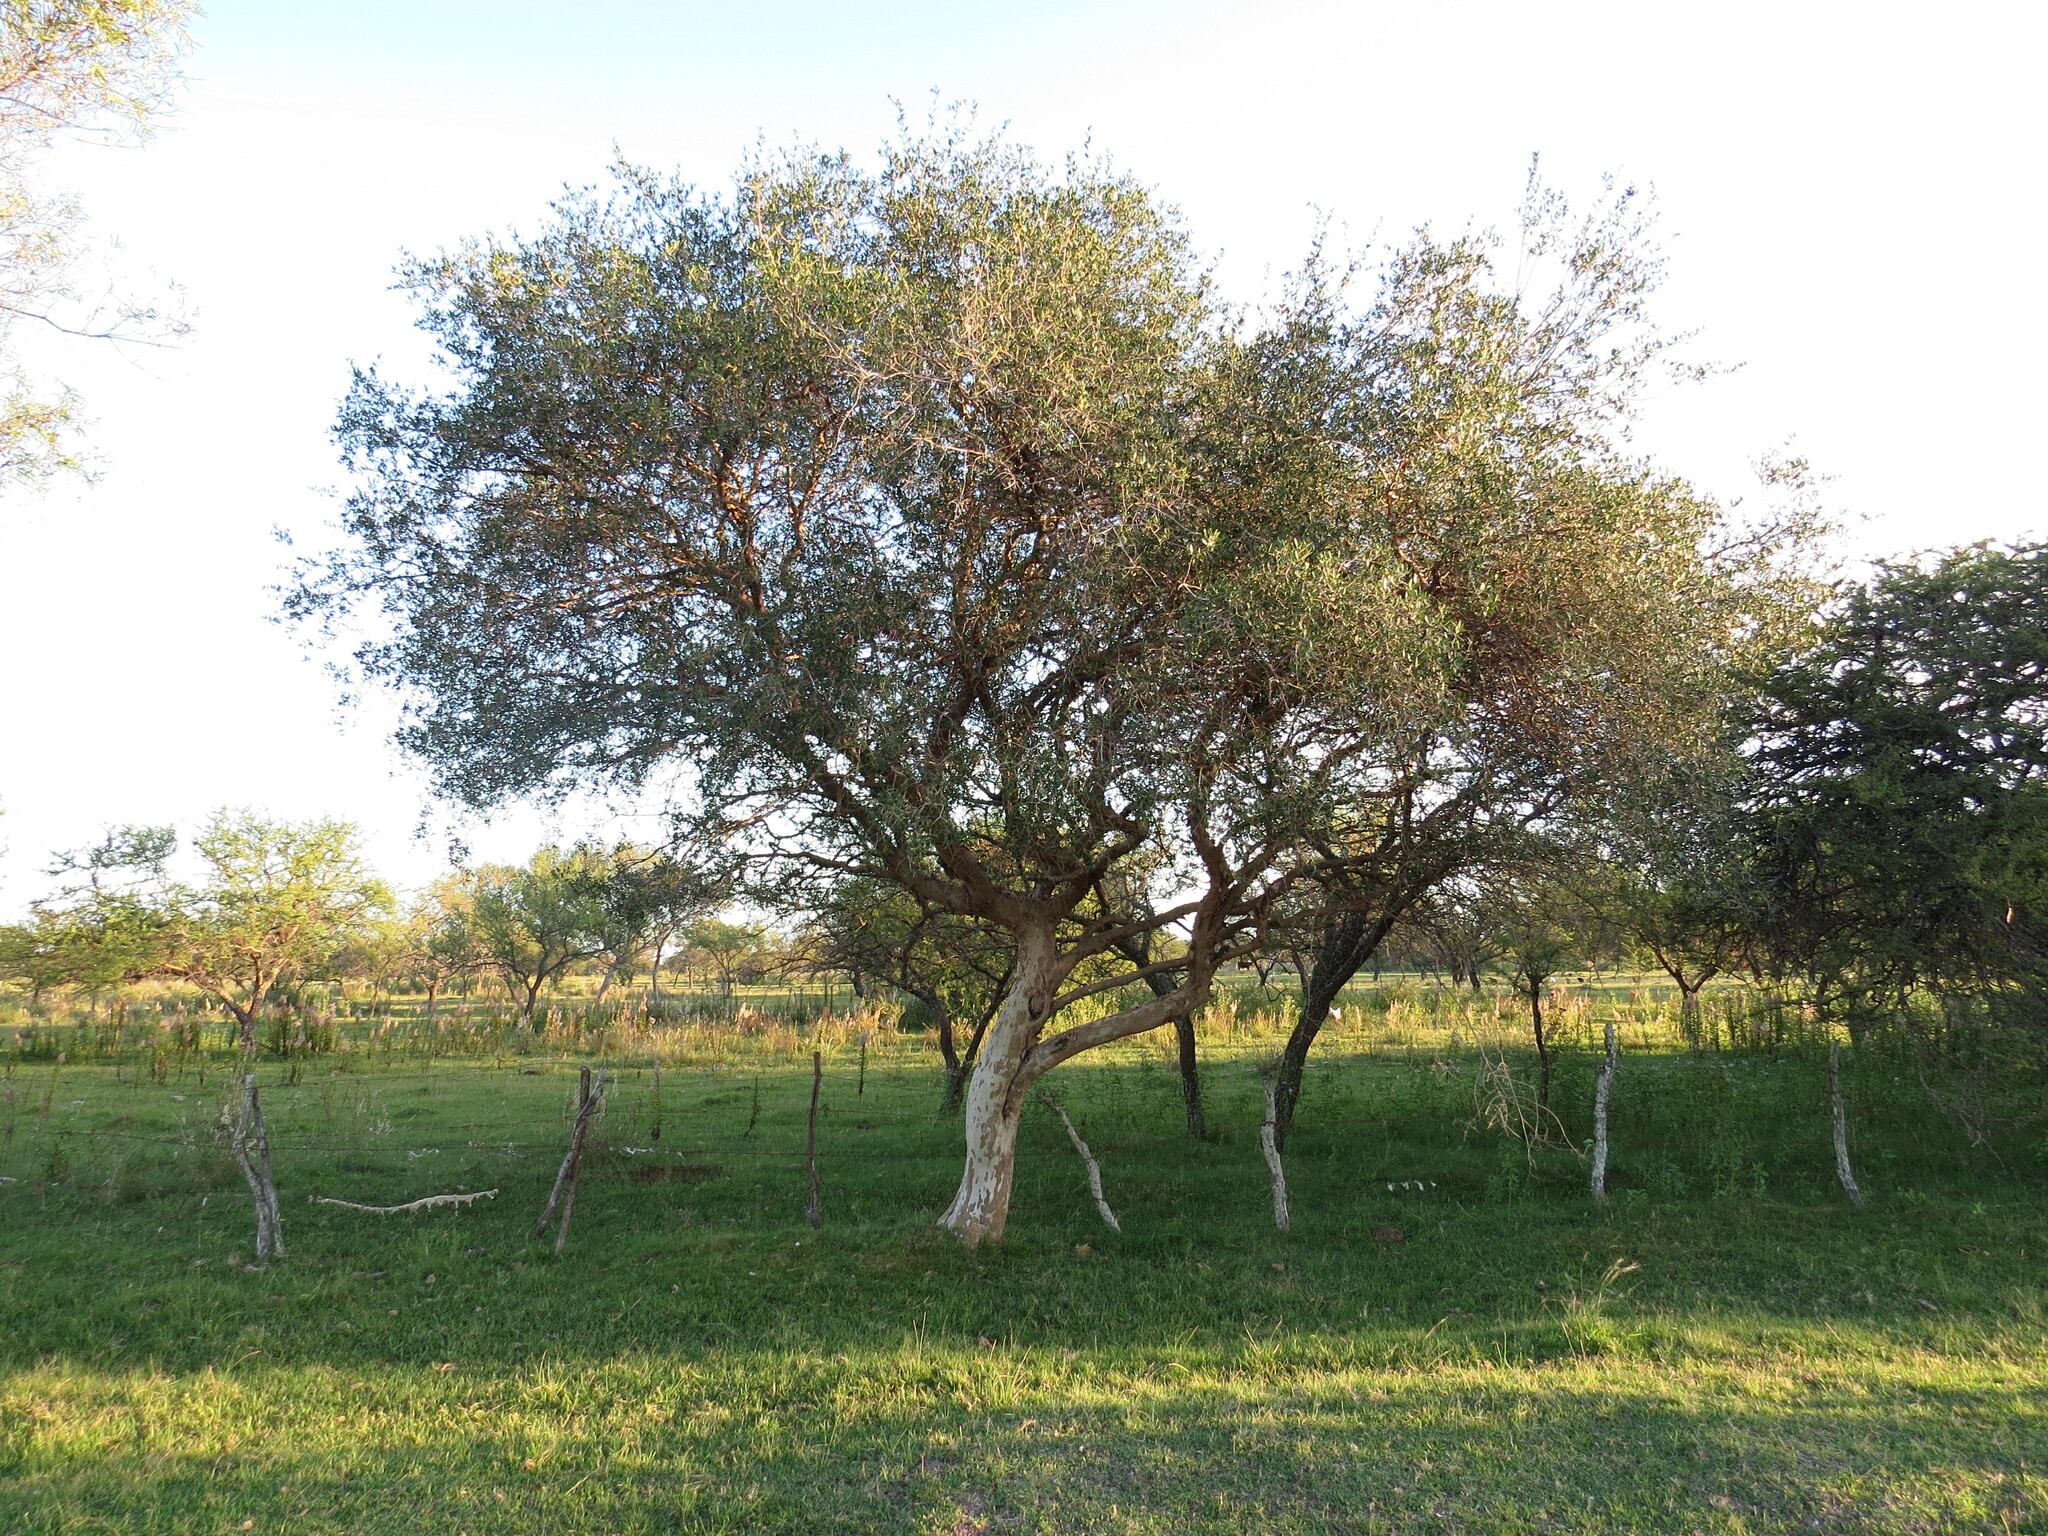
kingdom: Plantae
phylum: Tracheophyta
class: Magnoliopsida
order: Myrtales
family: Myrtaceae
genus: Myrcianthes
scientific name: Myrcianthes cisplatensis
